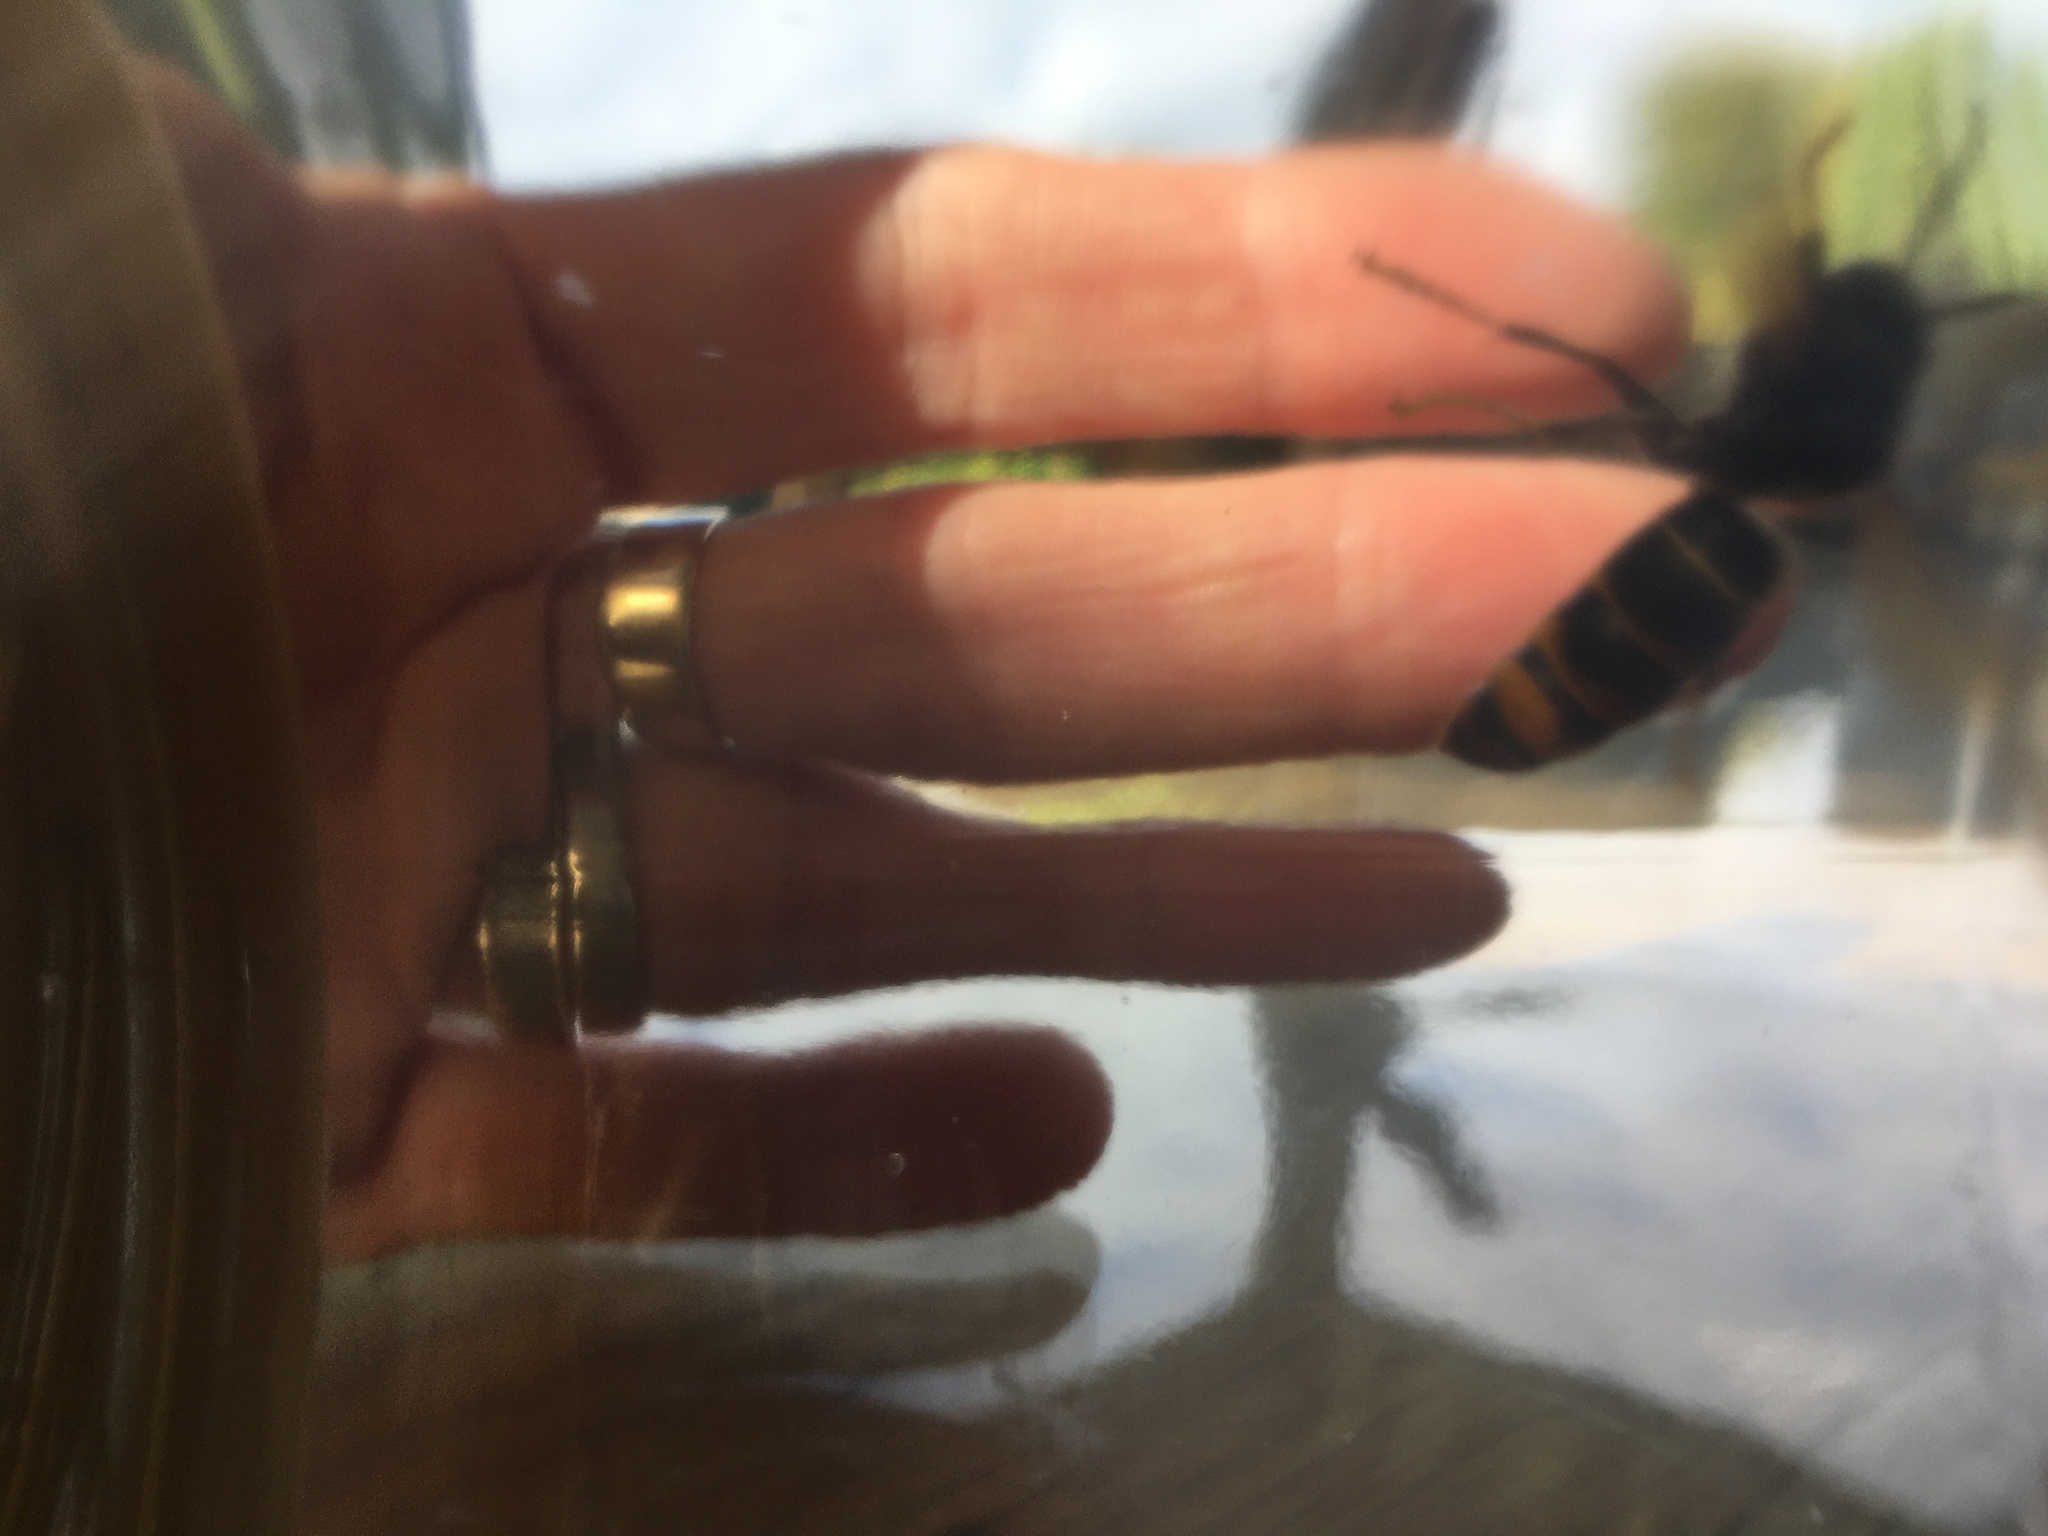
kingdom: Animalia
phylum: Arthropoda
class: Insecta
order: Hymenoptera
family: Vespidae
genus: Vespa
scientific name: Vespa velutina
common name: Asian hornet
